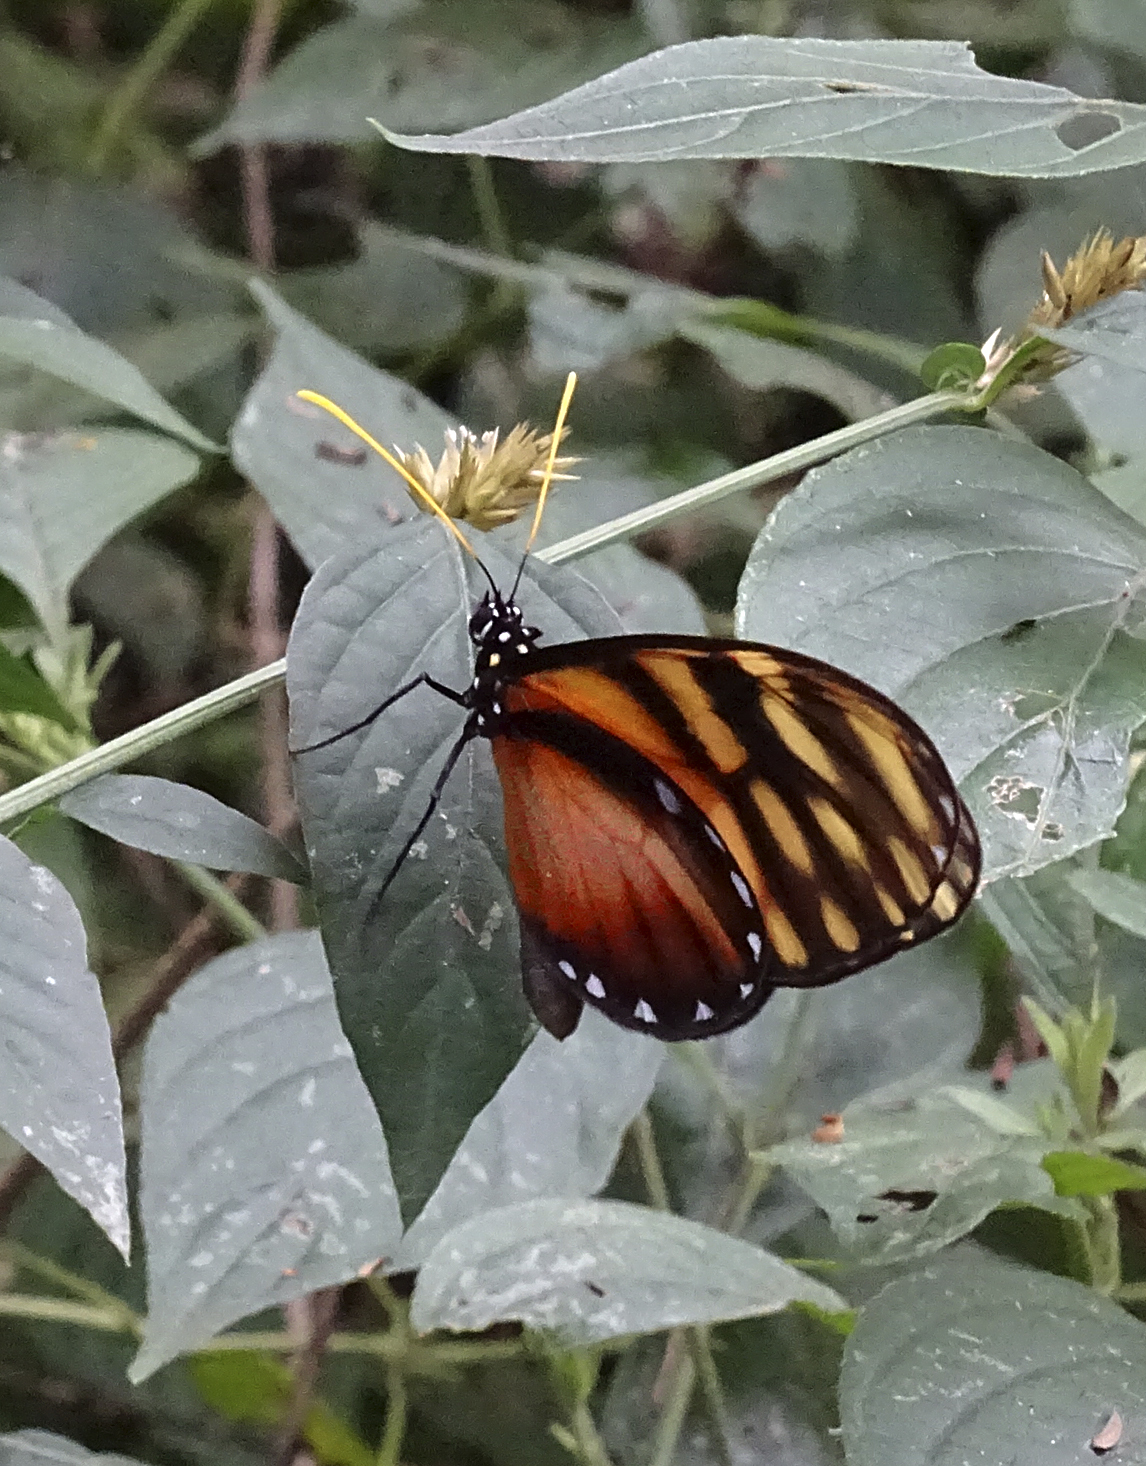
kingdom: Animalia
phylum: Arthropoda
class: Insecta
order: Lepidoptera
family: Nymphalidae
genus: Dircenna
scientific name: Dircenna klugii
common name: Klug’s clearwing
